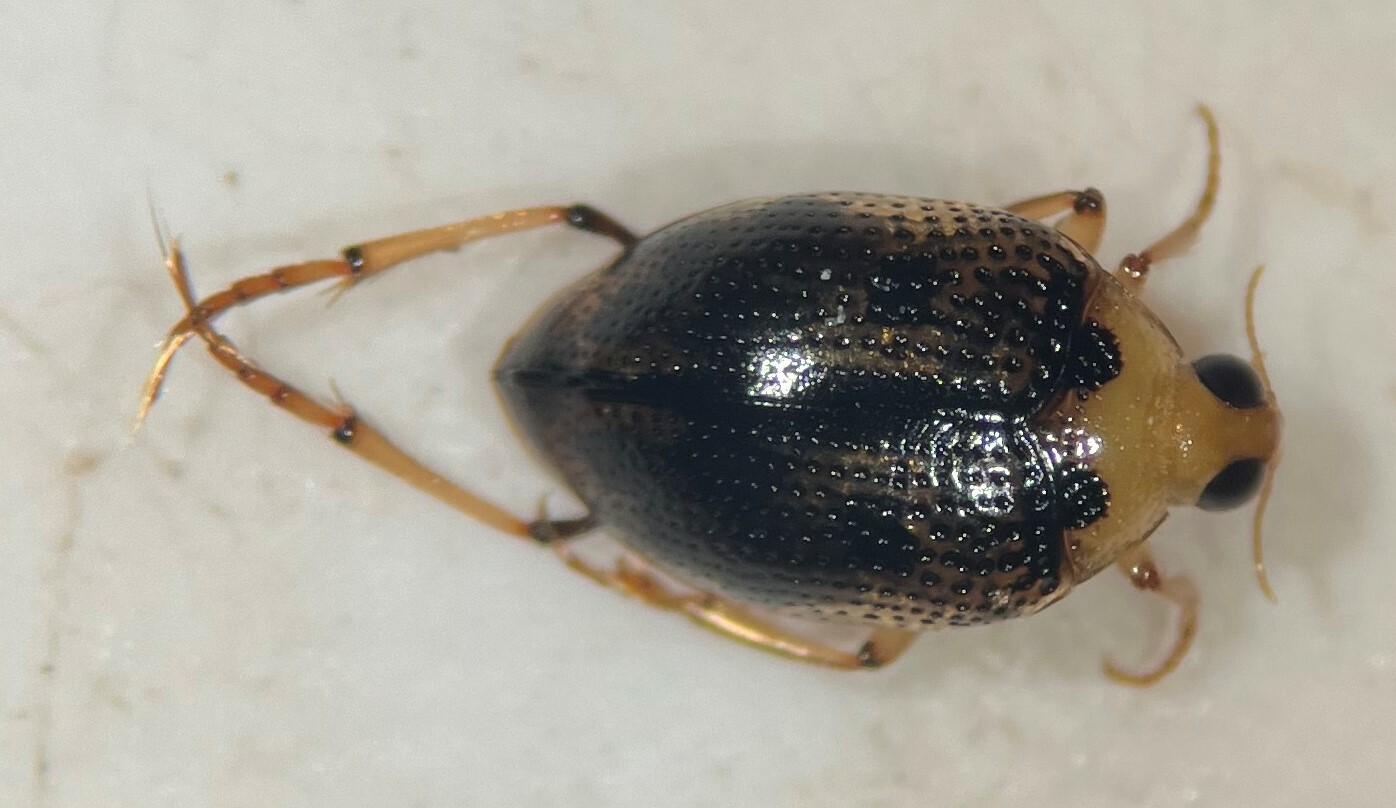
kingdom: Animalia
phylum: Arthropoda
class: Insecta
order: Coleoptera
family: Haliplidae
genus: Peltodytes
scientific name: Peltodytes shermani
